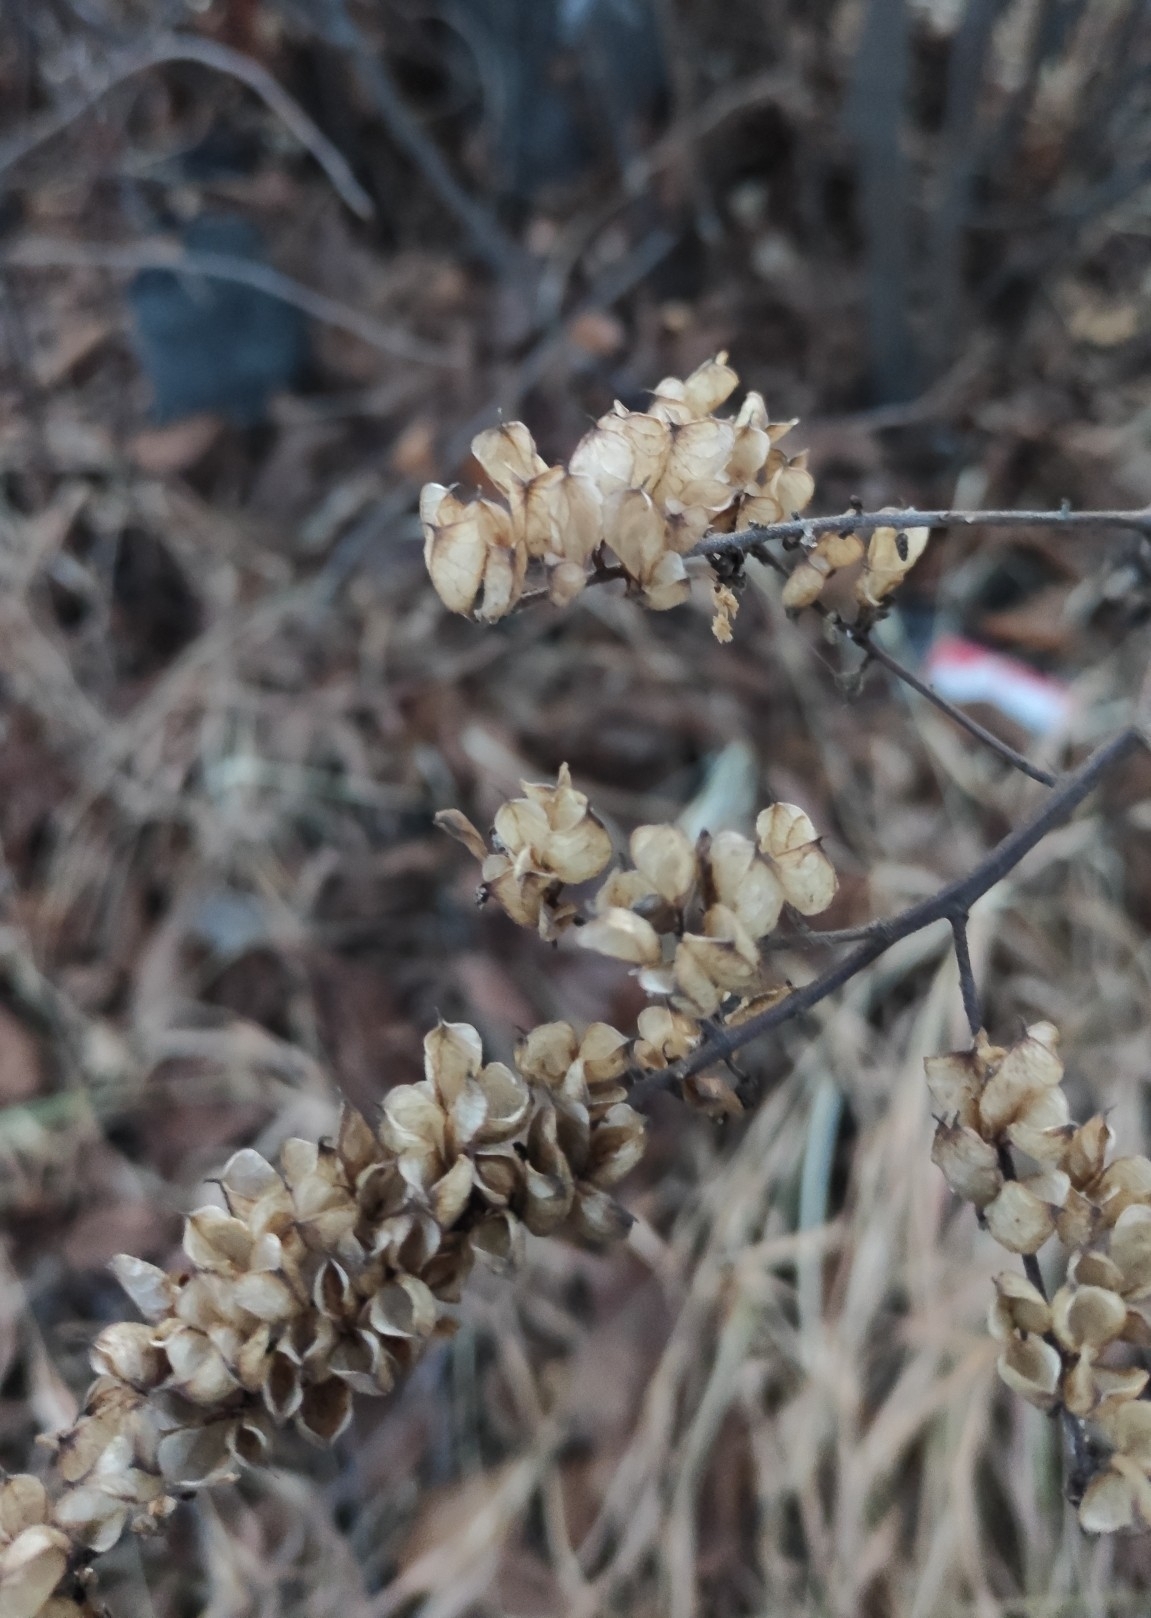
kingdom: Plantae
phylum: Tracheophyta
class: Magnoliopsida
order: Ranunculales
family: Ranunculaceae
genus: Actaea
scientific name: Actaea cimicifuga
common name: Chinese cimicifuga
